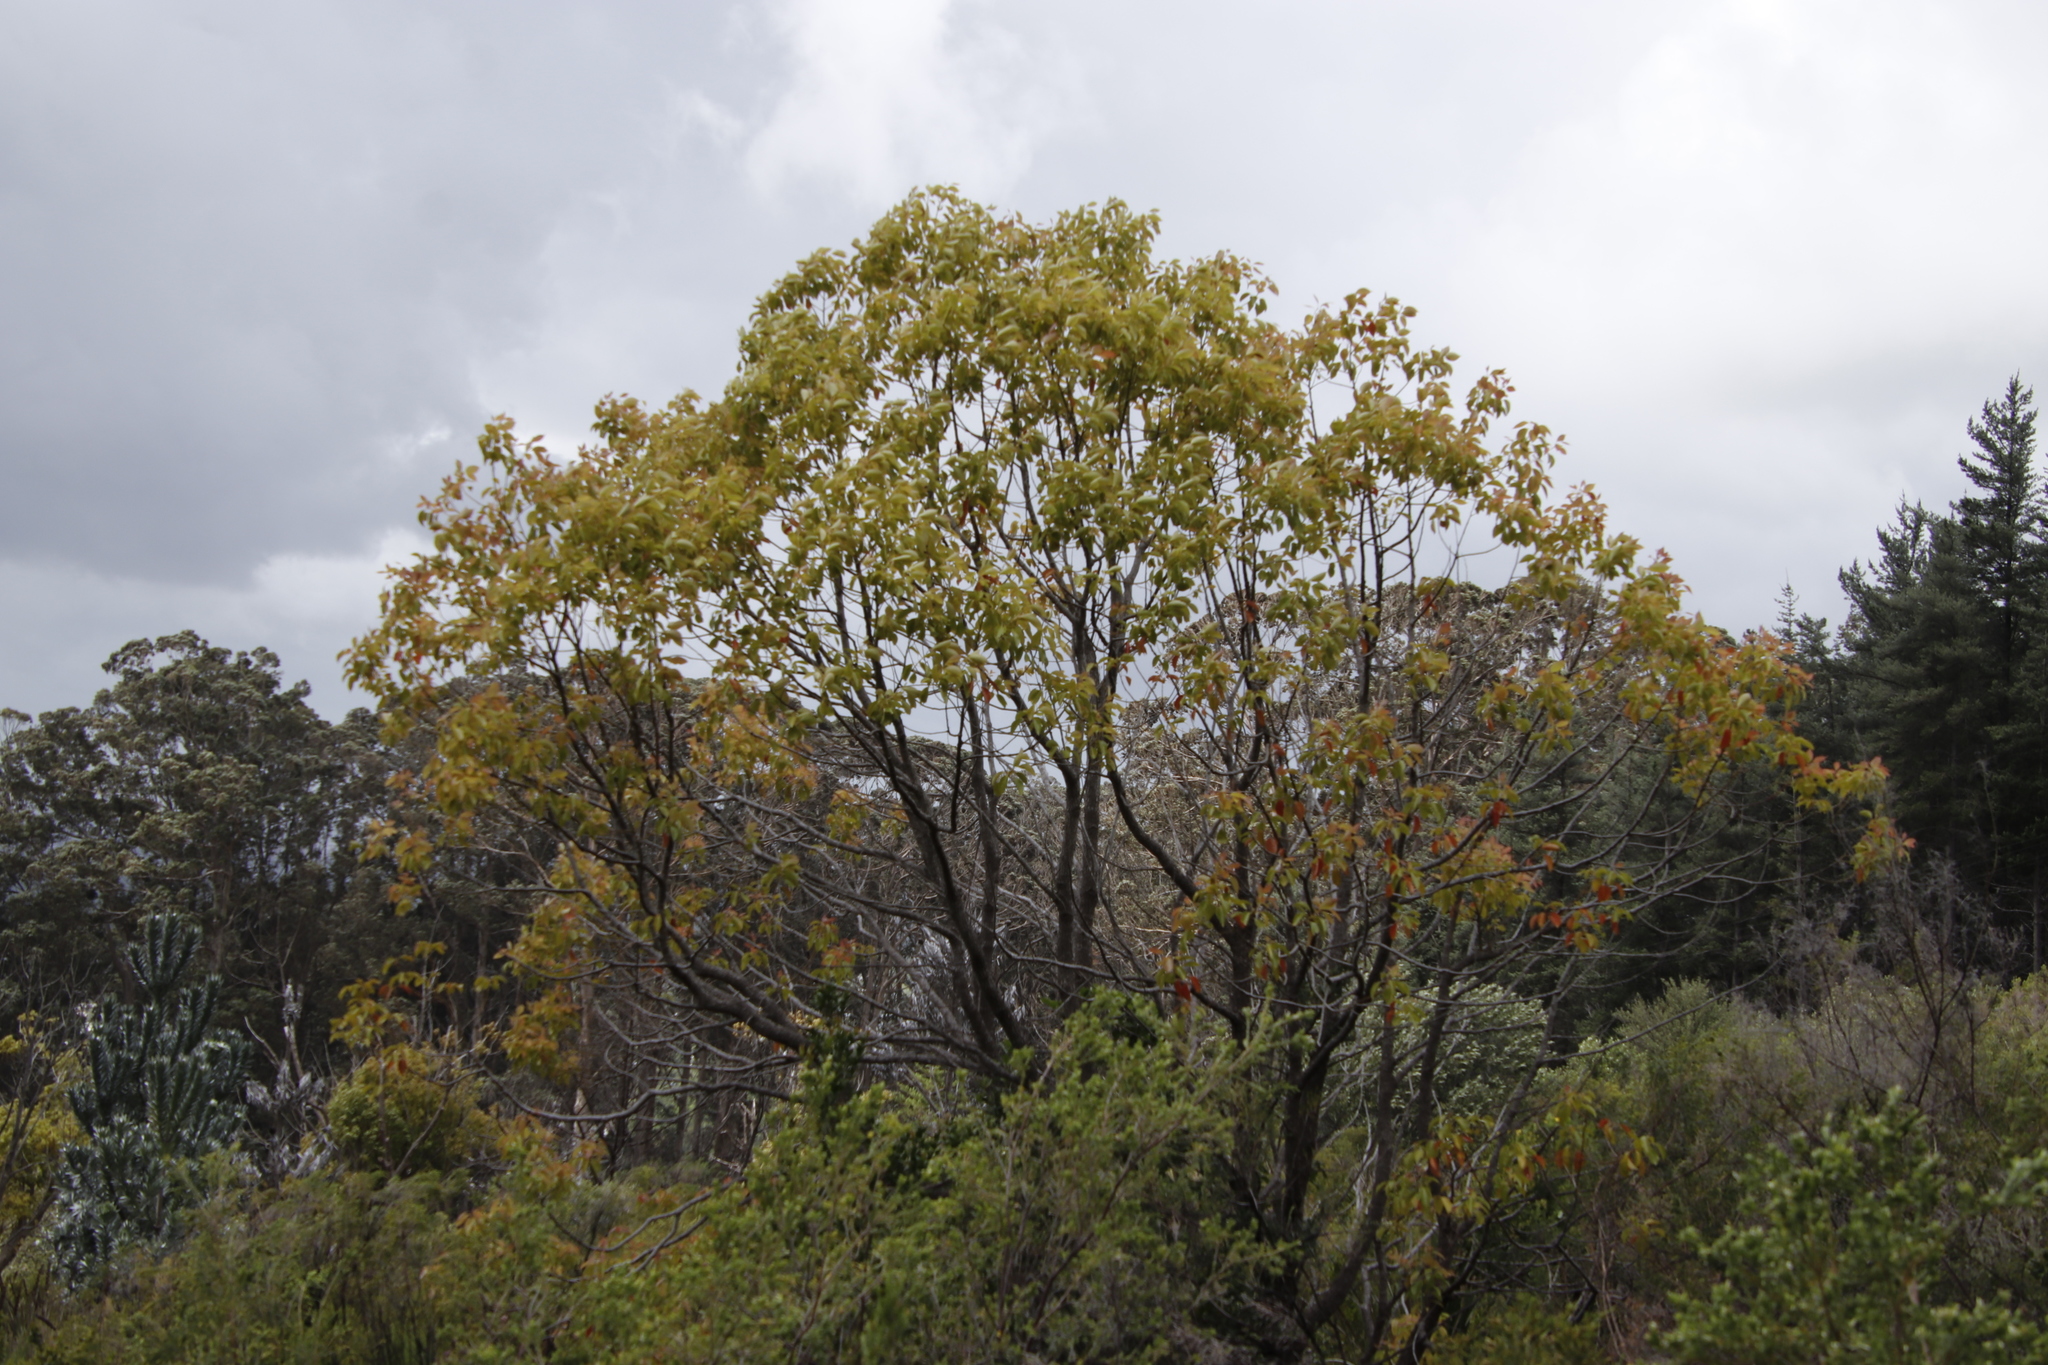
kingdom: Plantae
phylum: Tracheophyta
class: Magnoliopsida
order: Laurales
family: Lauraceae
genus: Cinnamomum
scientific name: Cinnamomum camphora
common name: Camphortree
